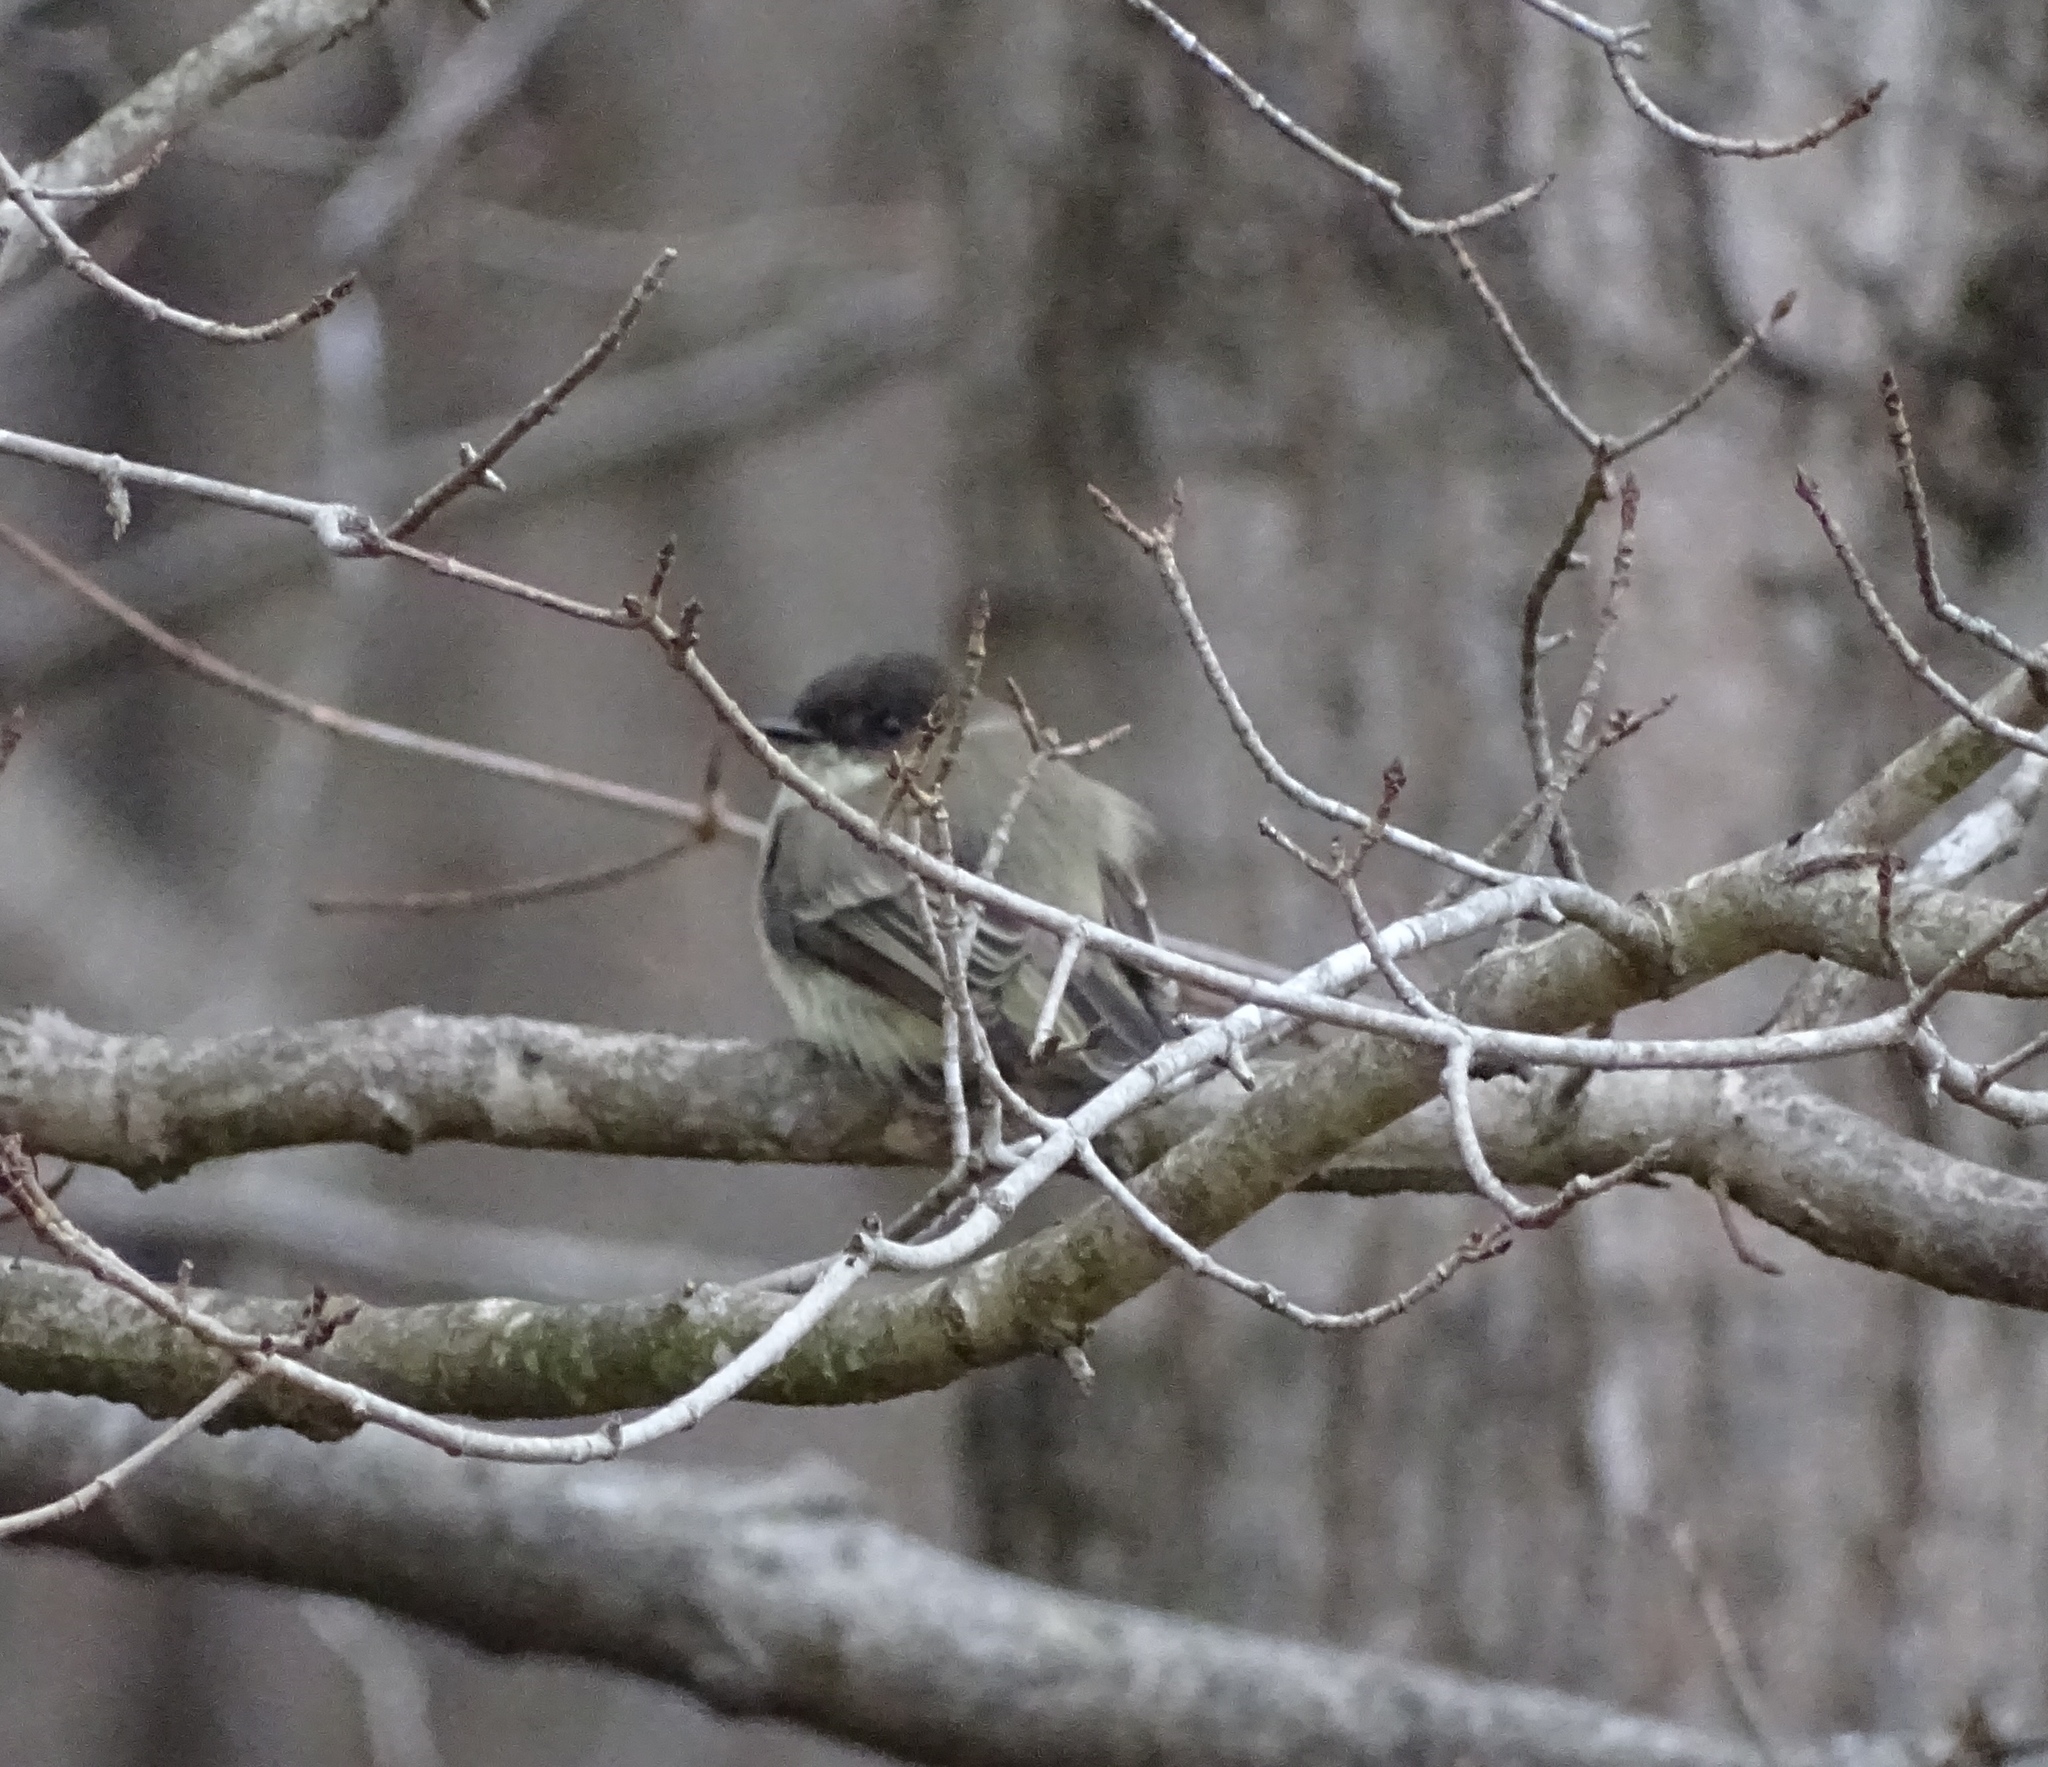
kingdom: Animalia
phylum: Chordata
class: Aves
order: Passeriformes
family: Tyrannidae
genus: Sayornis
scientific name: Sayornis phoebe
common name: Eastern phoebe
